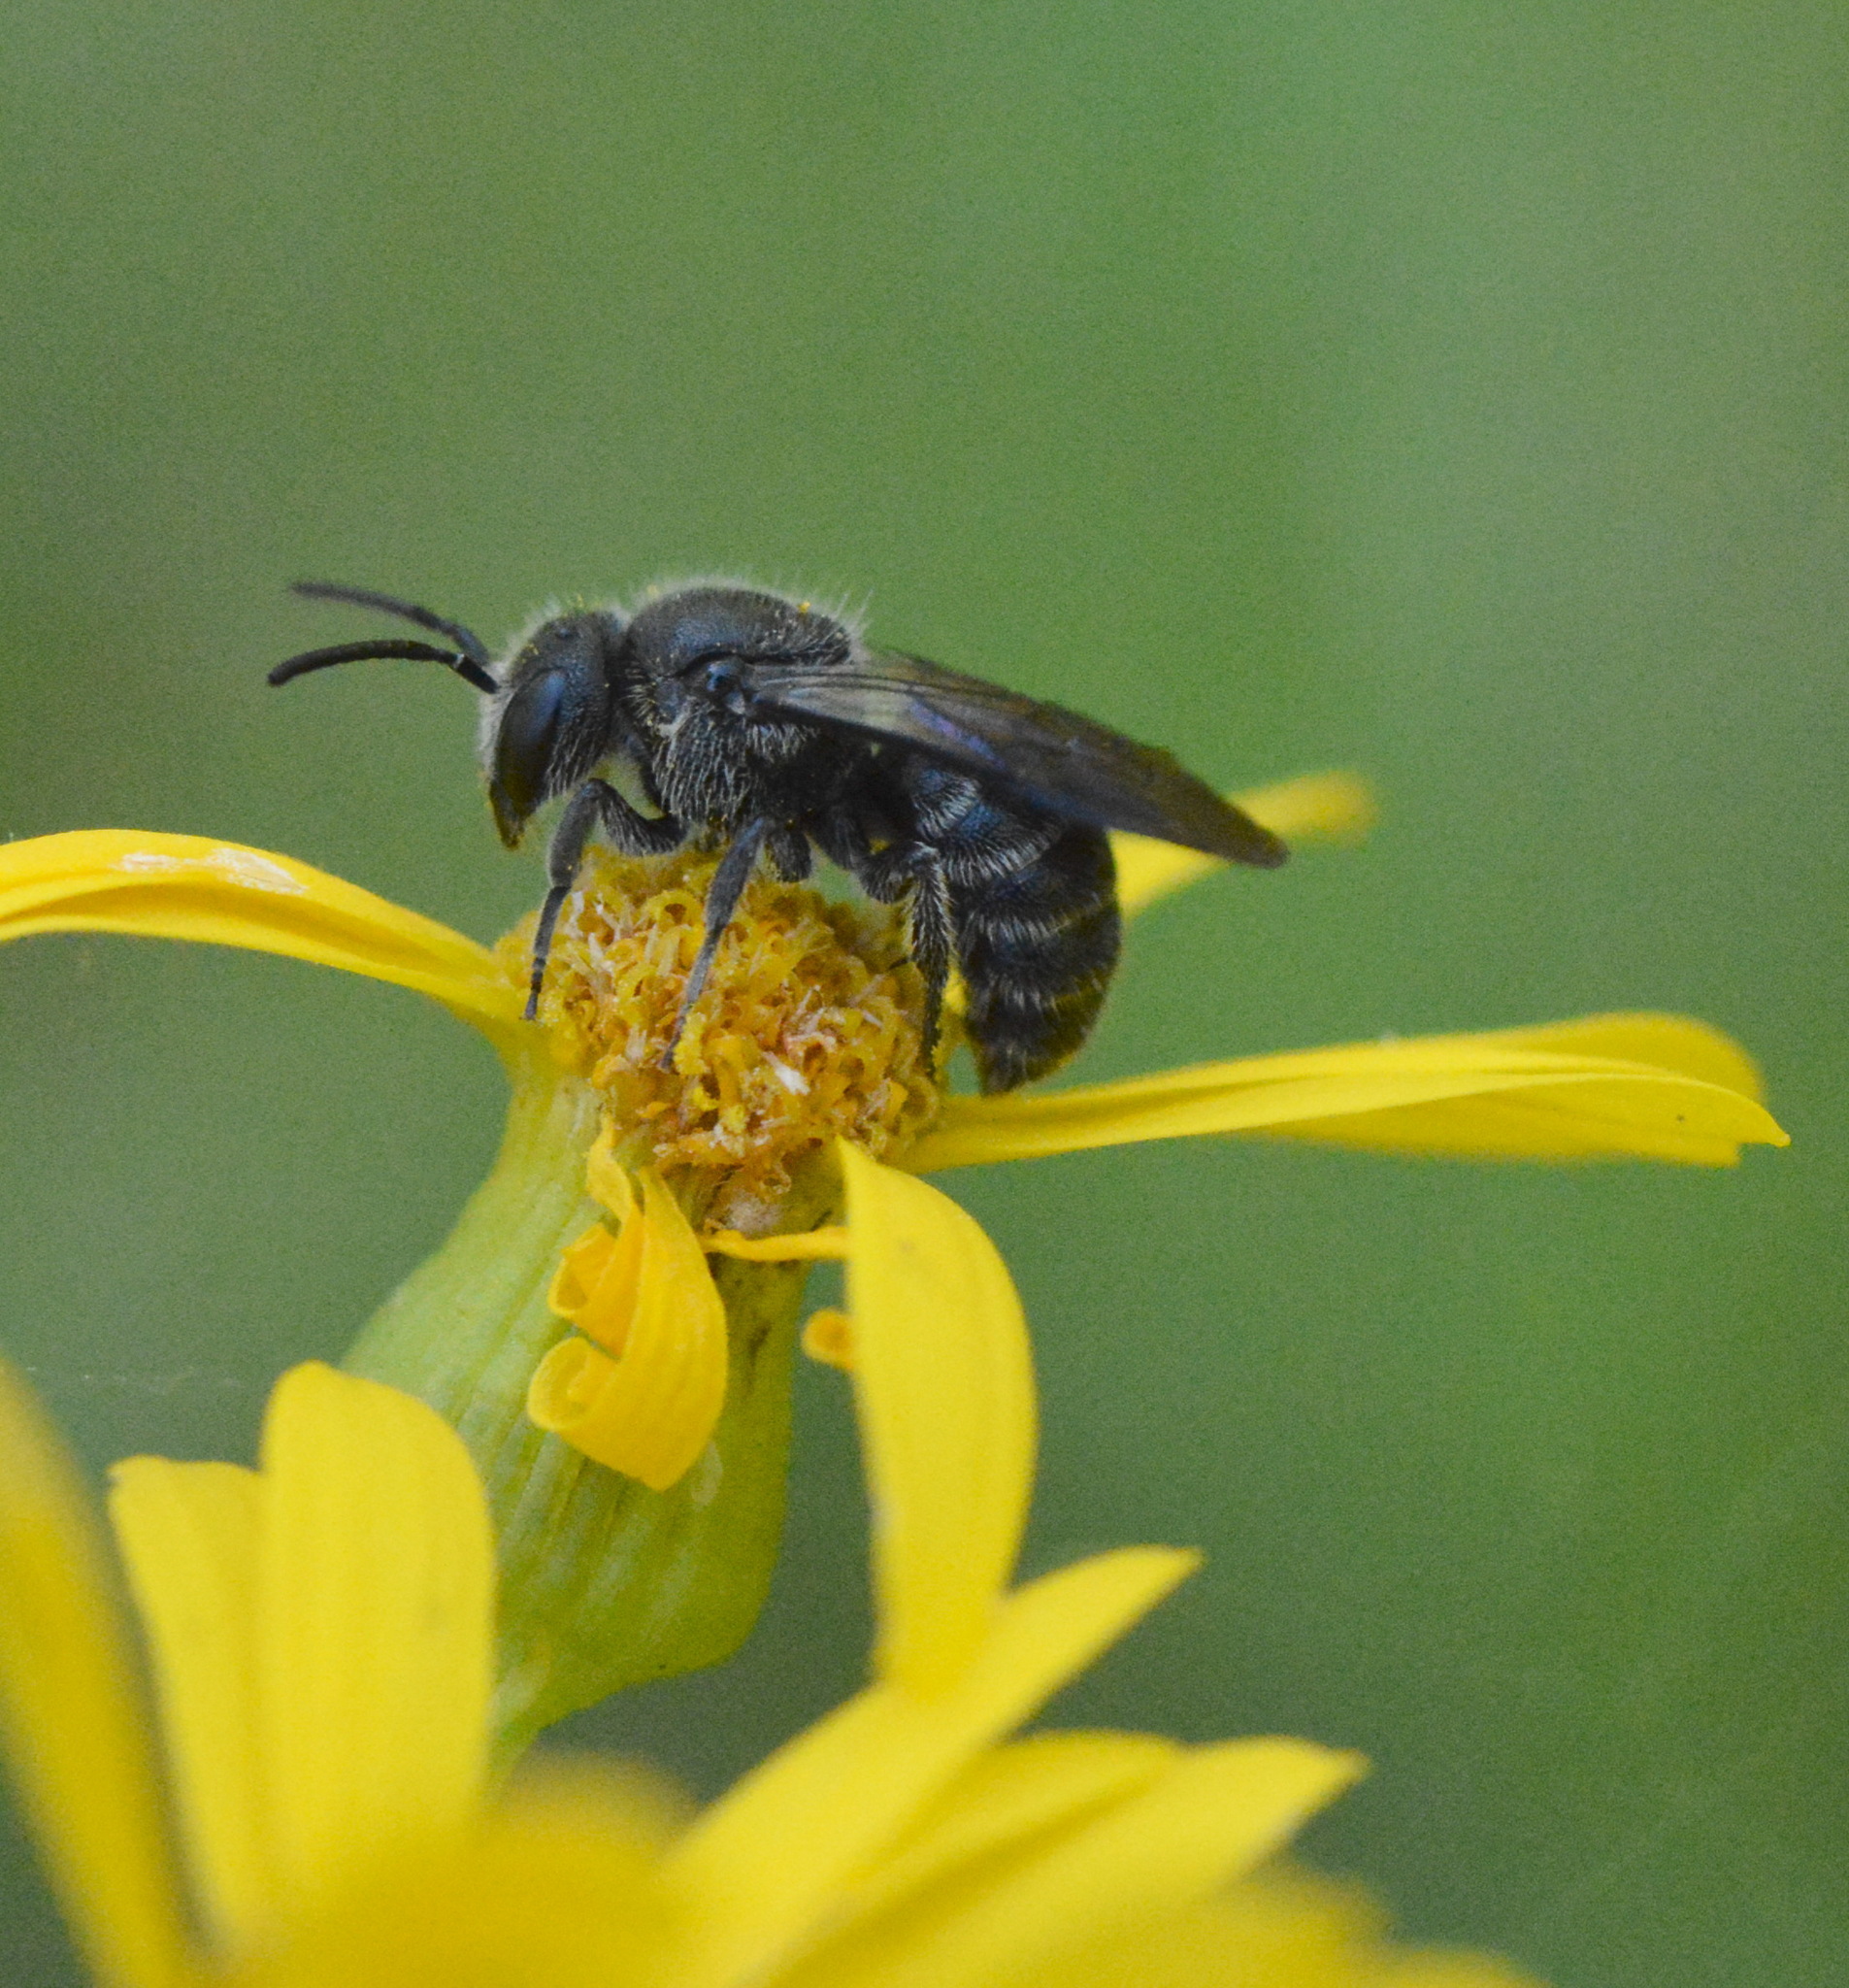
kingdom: Animalia
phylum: Arthropoda
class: Insecta
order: Hymenoptera
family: Megachilidae
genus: Stelis
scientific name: Stelis diversicolor
